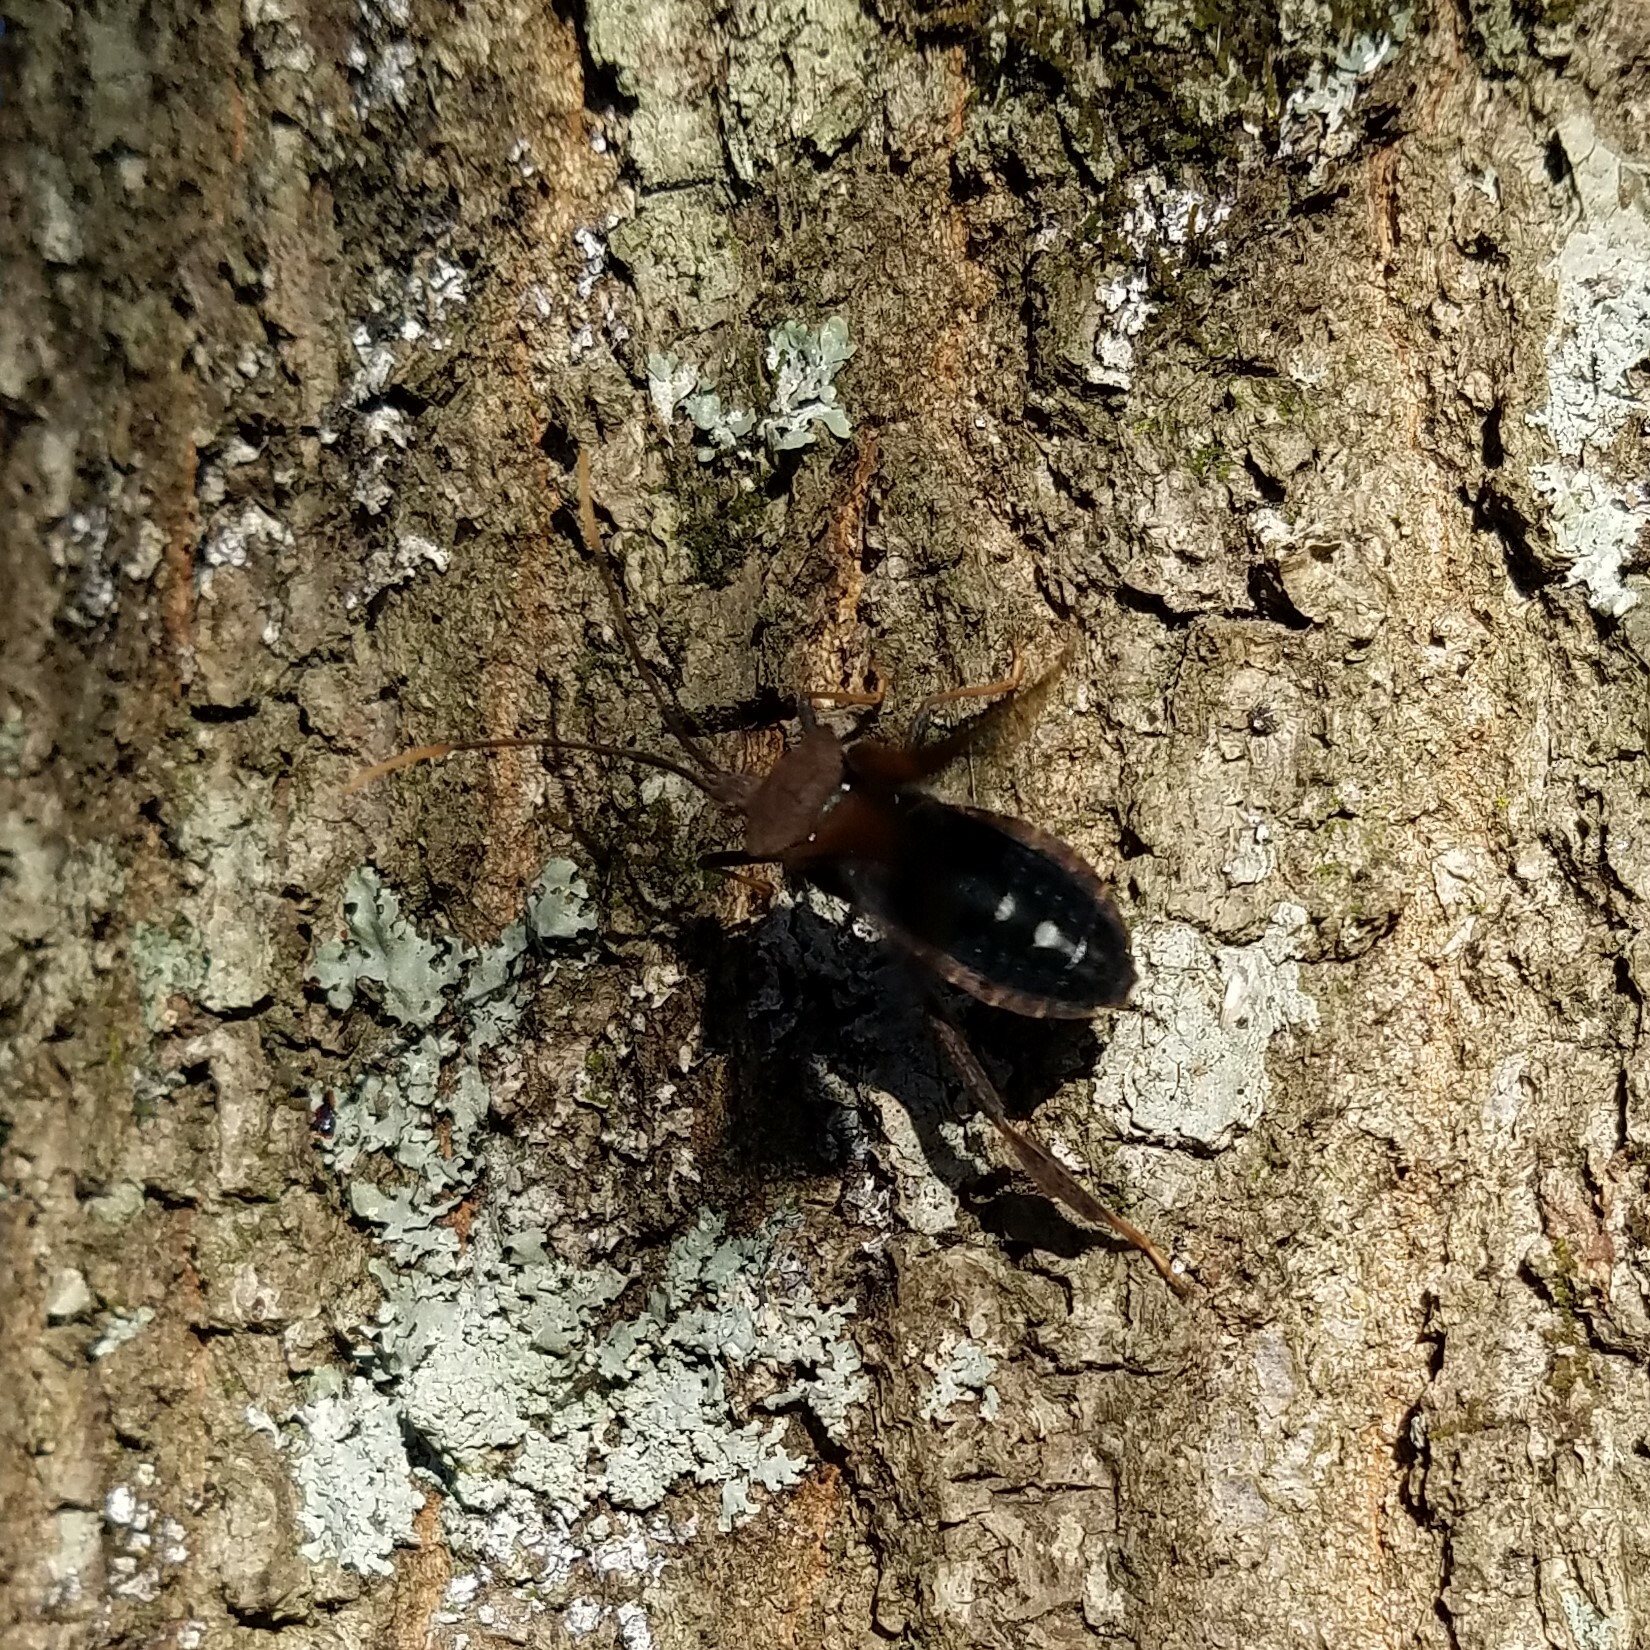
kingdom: Animalia
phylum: Arthropoda
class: Insecta
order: Hemiptera
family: Coreidae
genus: Acanthocephala
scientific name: Acanthocephala terminalis
